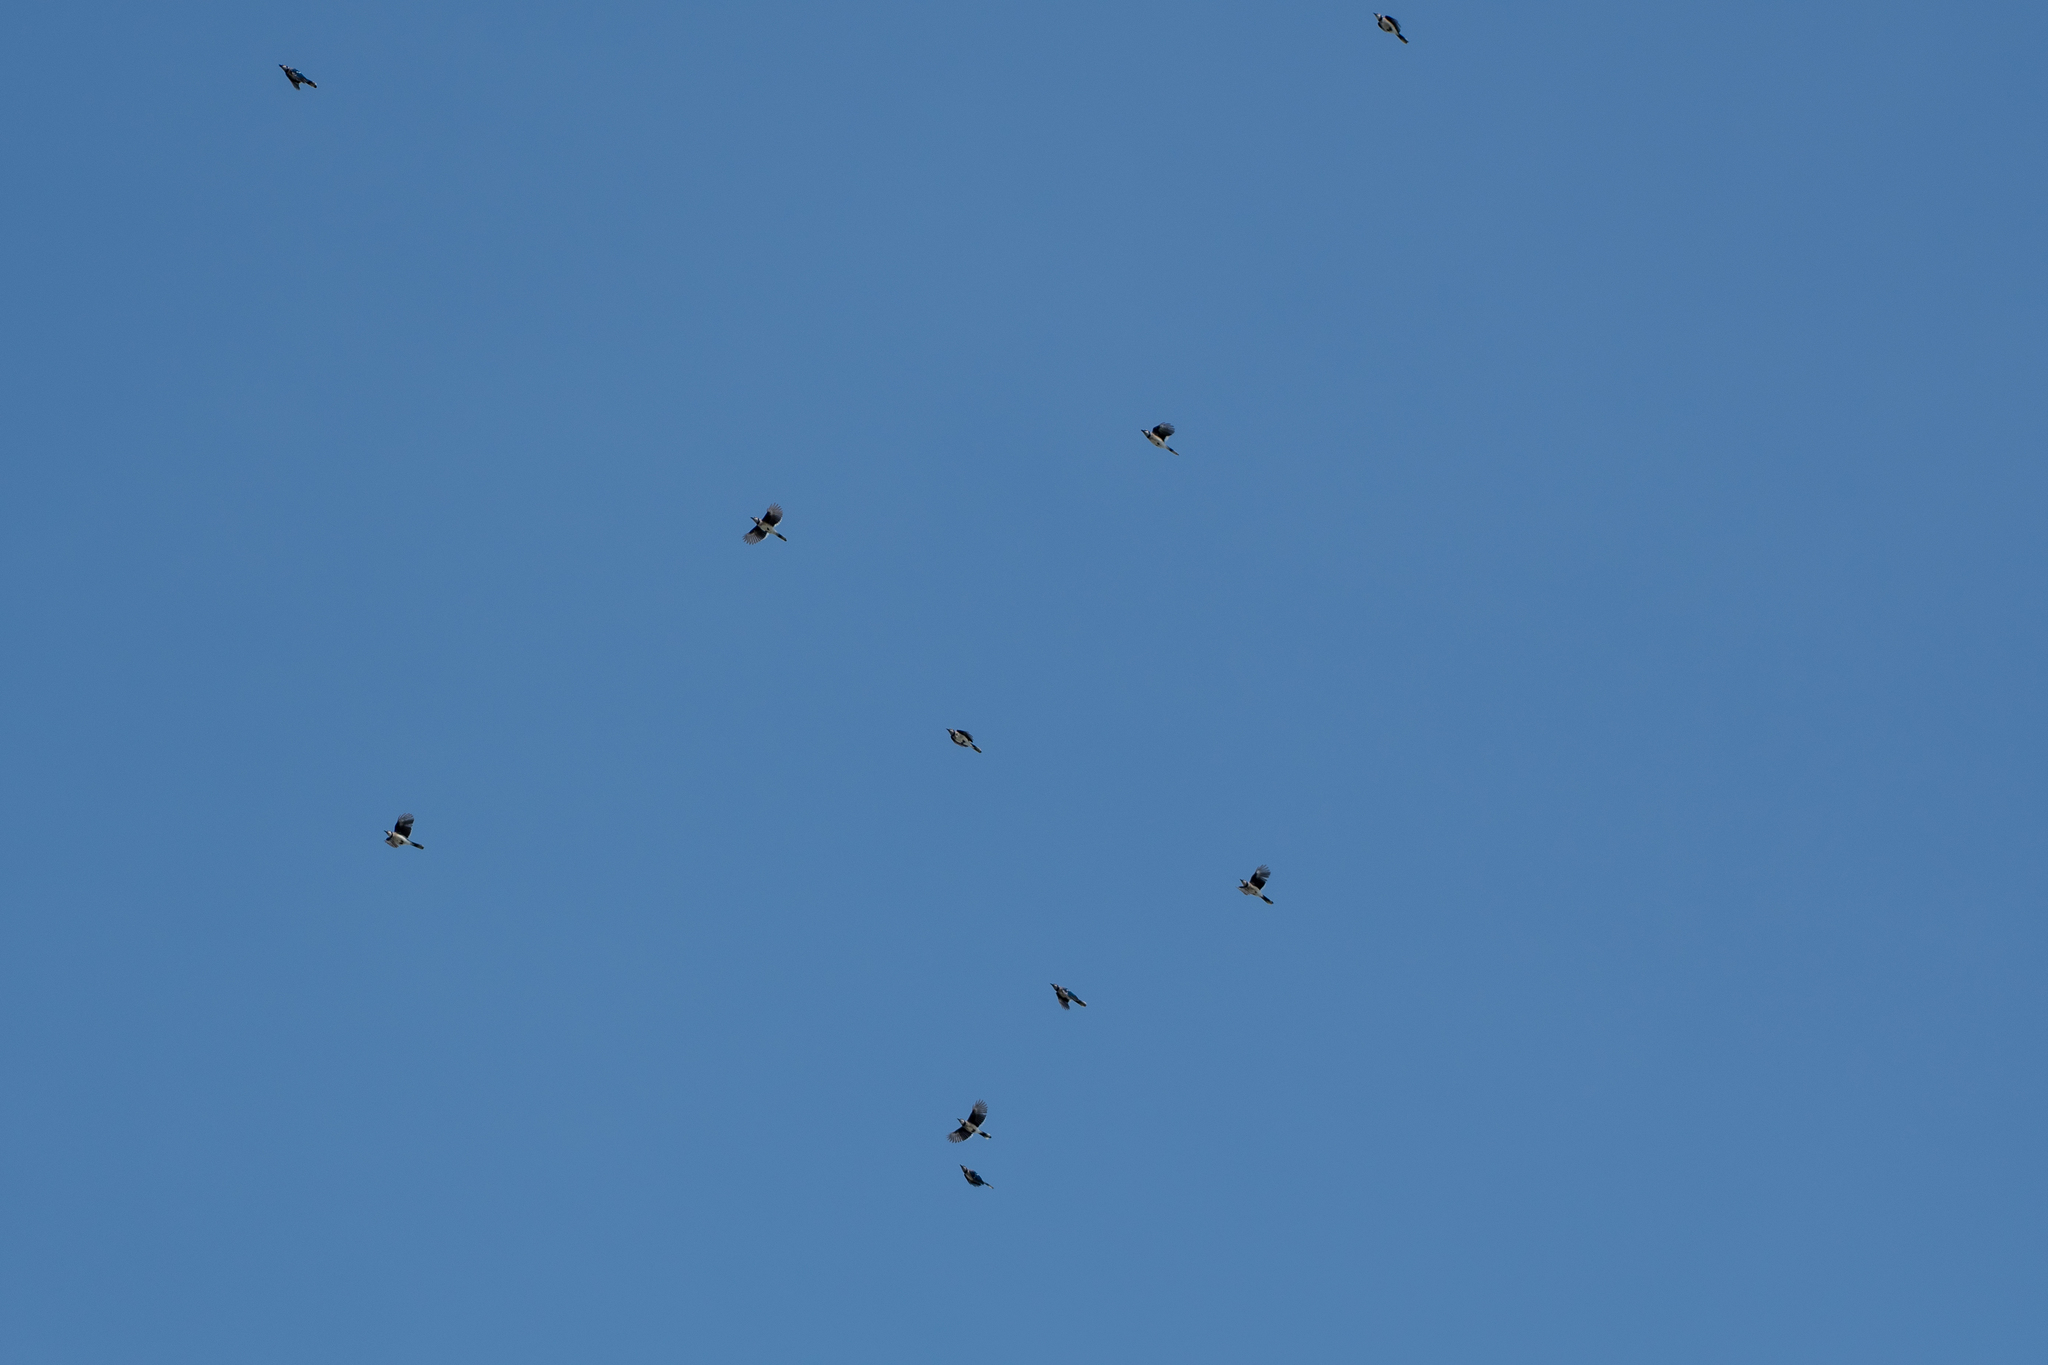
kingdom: Animalia
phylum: Chordata
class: Aves
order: Passeriformes
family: Corvidae
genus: Cyanocitta
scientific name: Cyanocitta cristata
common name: Blue jay
